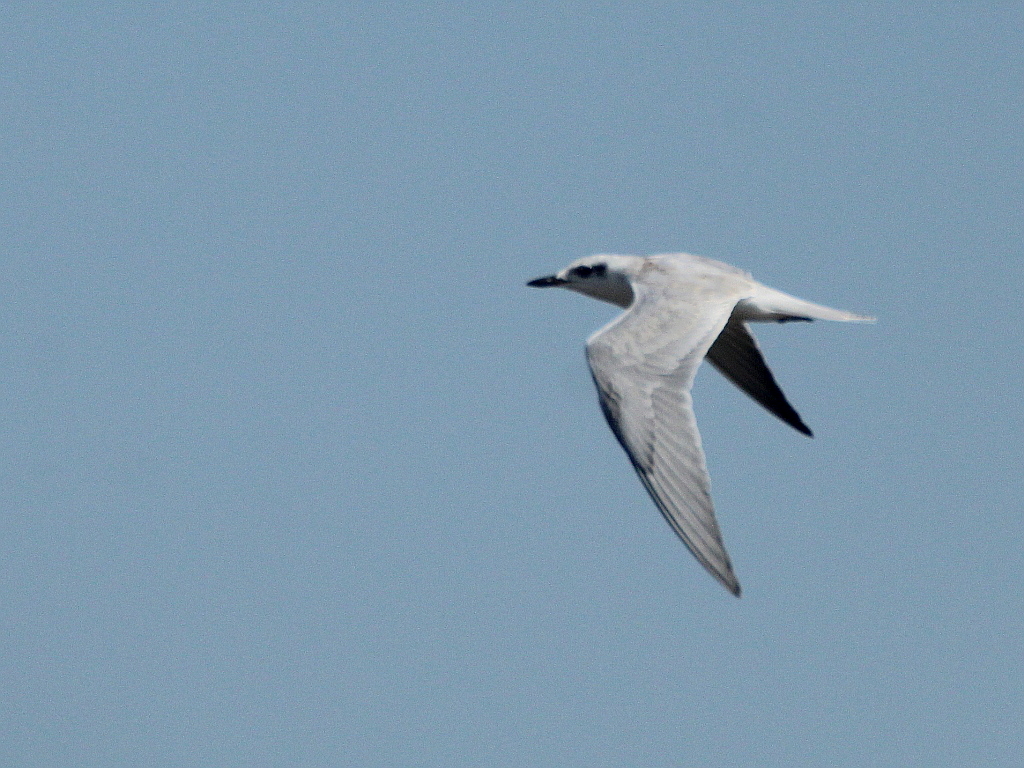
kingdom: Animalia
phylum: Chordata
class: Aves
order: Charadriiformes
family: Laridae
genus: Gelochelidon
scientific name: Gelochelidon nilotica
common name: Gull-billed tern
